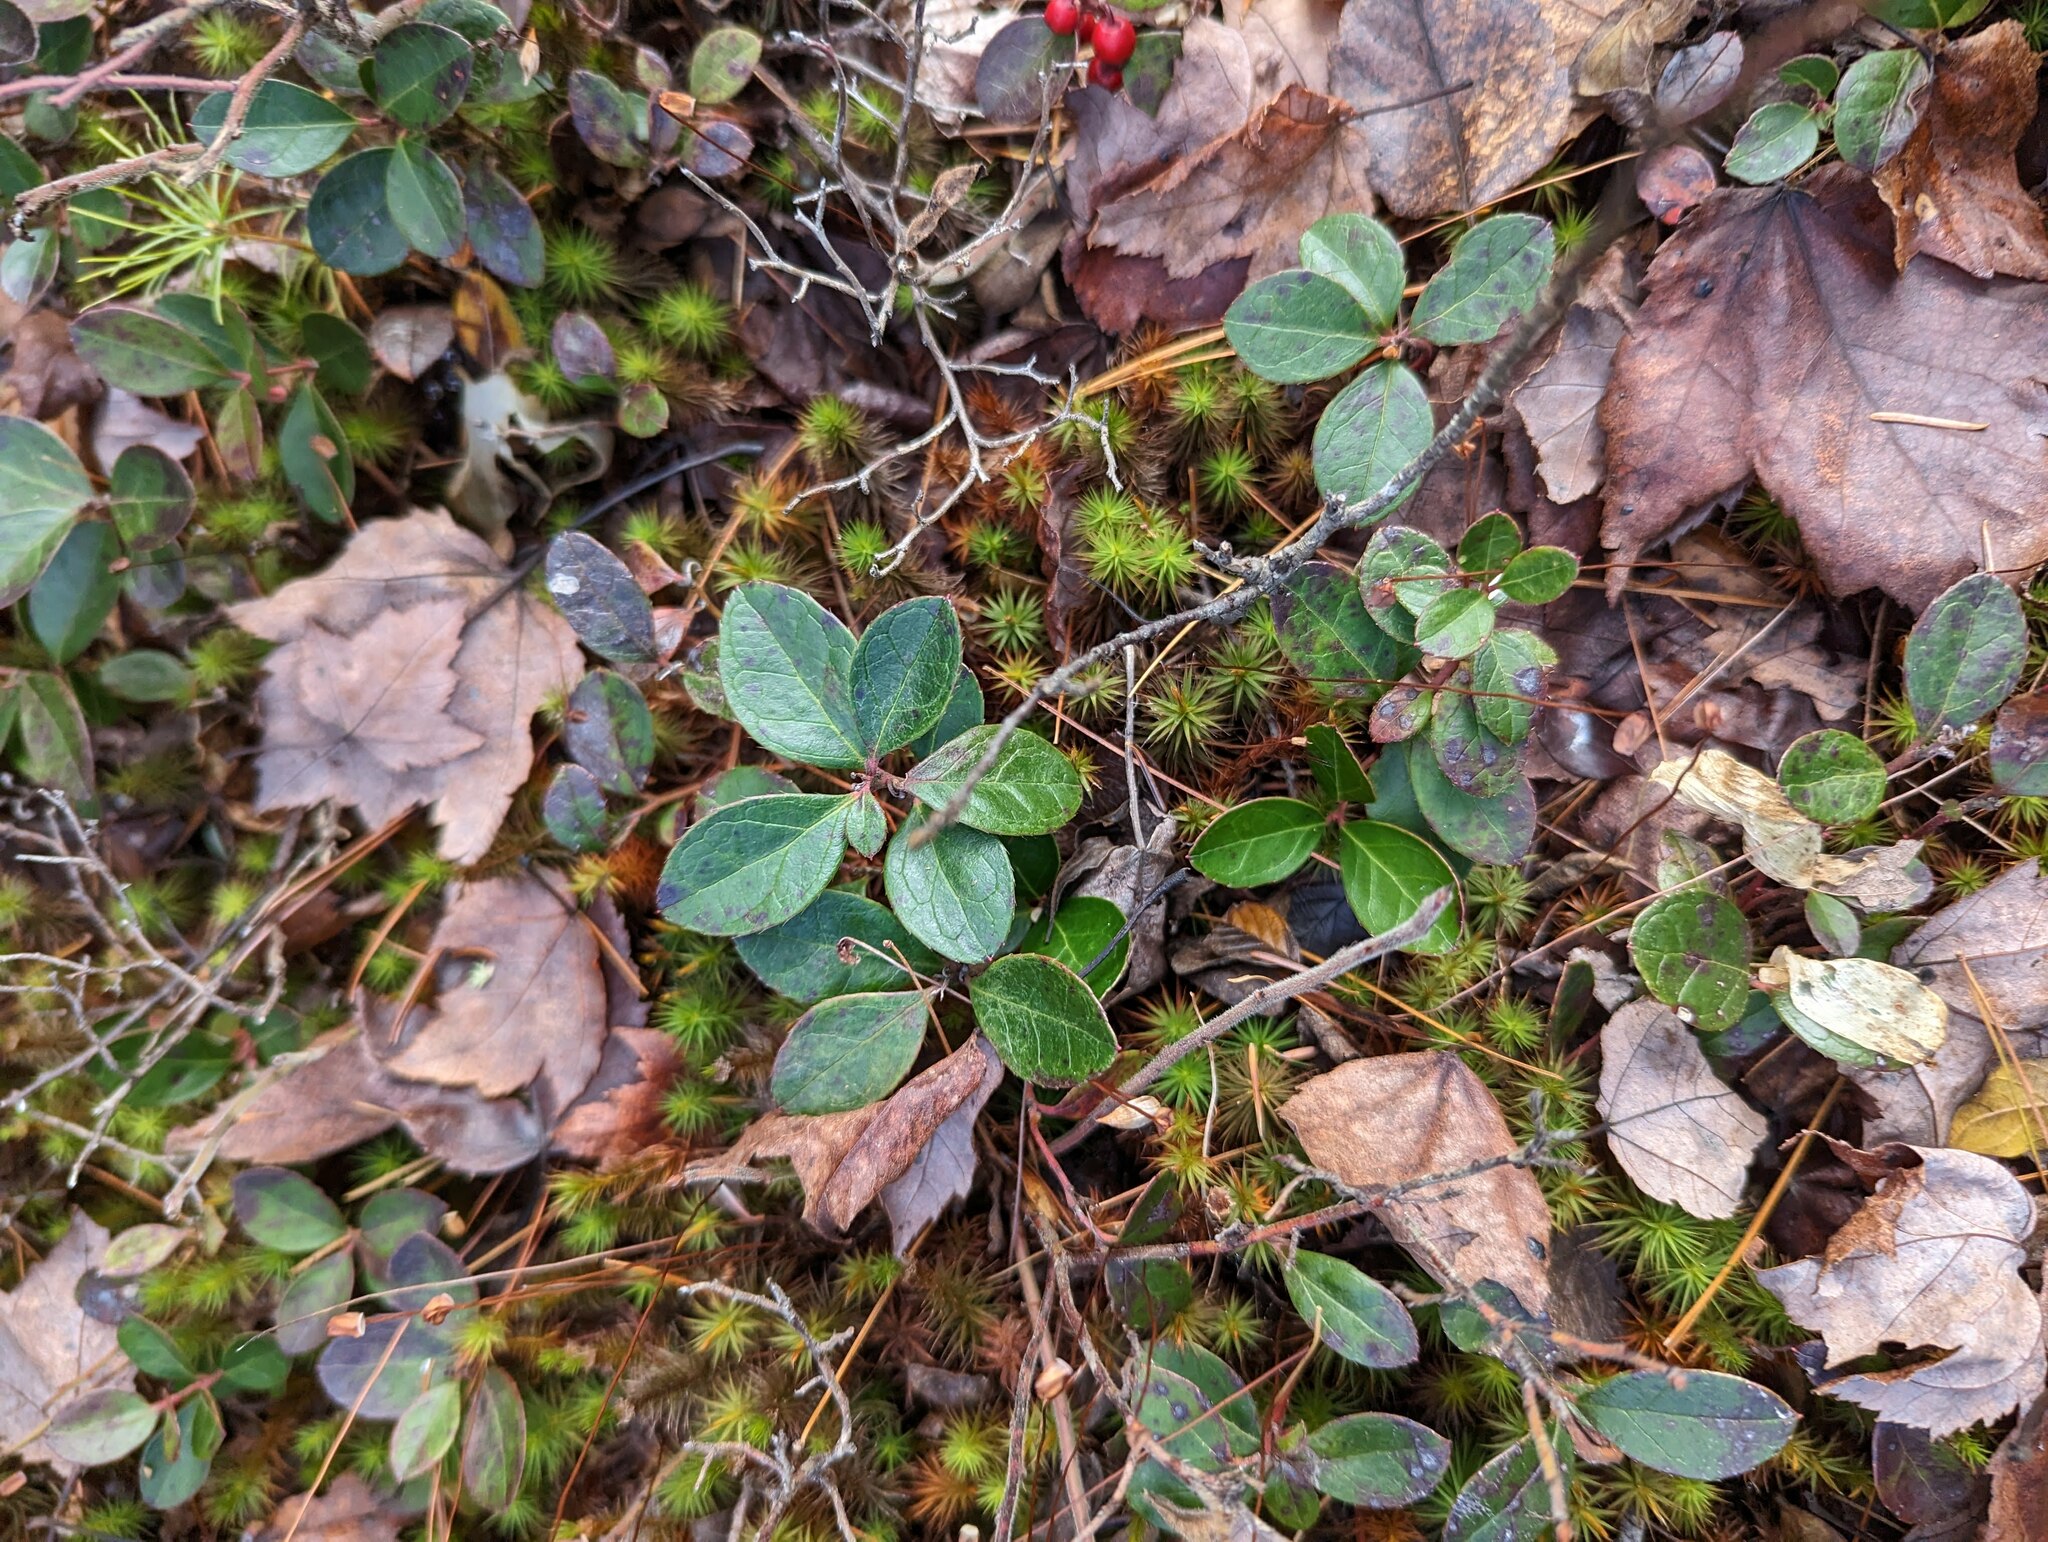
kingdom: Plantae
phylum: Tracheophyta
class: Magnoliopsida
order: Ericales
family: Ericaceae
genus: Gaultheria
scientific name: Gaultheria procumbens
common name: Checkerberry
